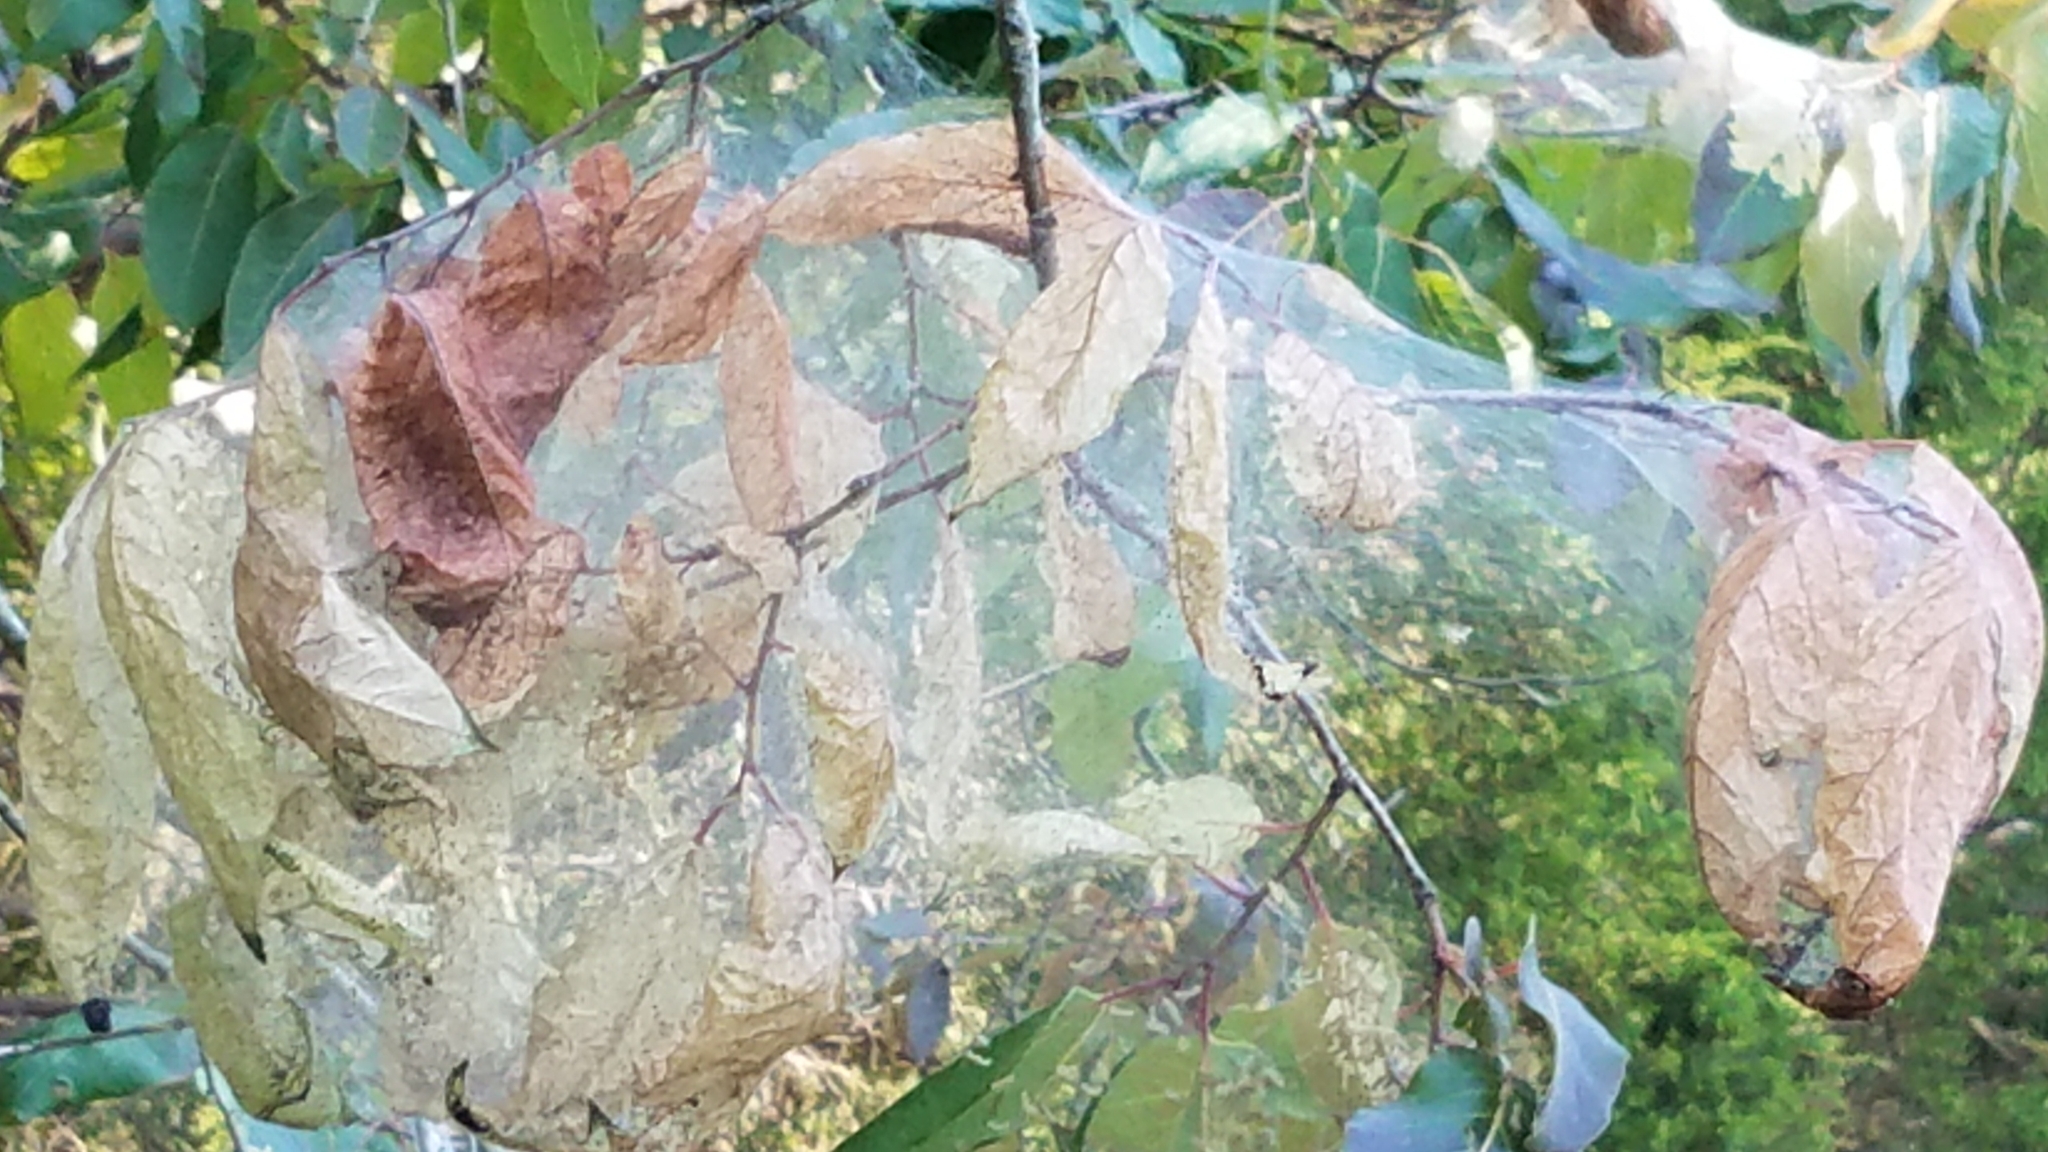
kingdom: Animalia
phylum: Arthropoda
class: Insecta
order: Lepidoptera
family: Erebidae
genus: Hyphantria
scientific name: Hyphantria cunea
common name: American white moth
